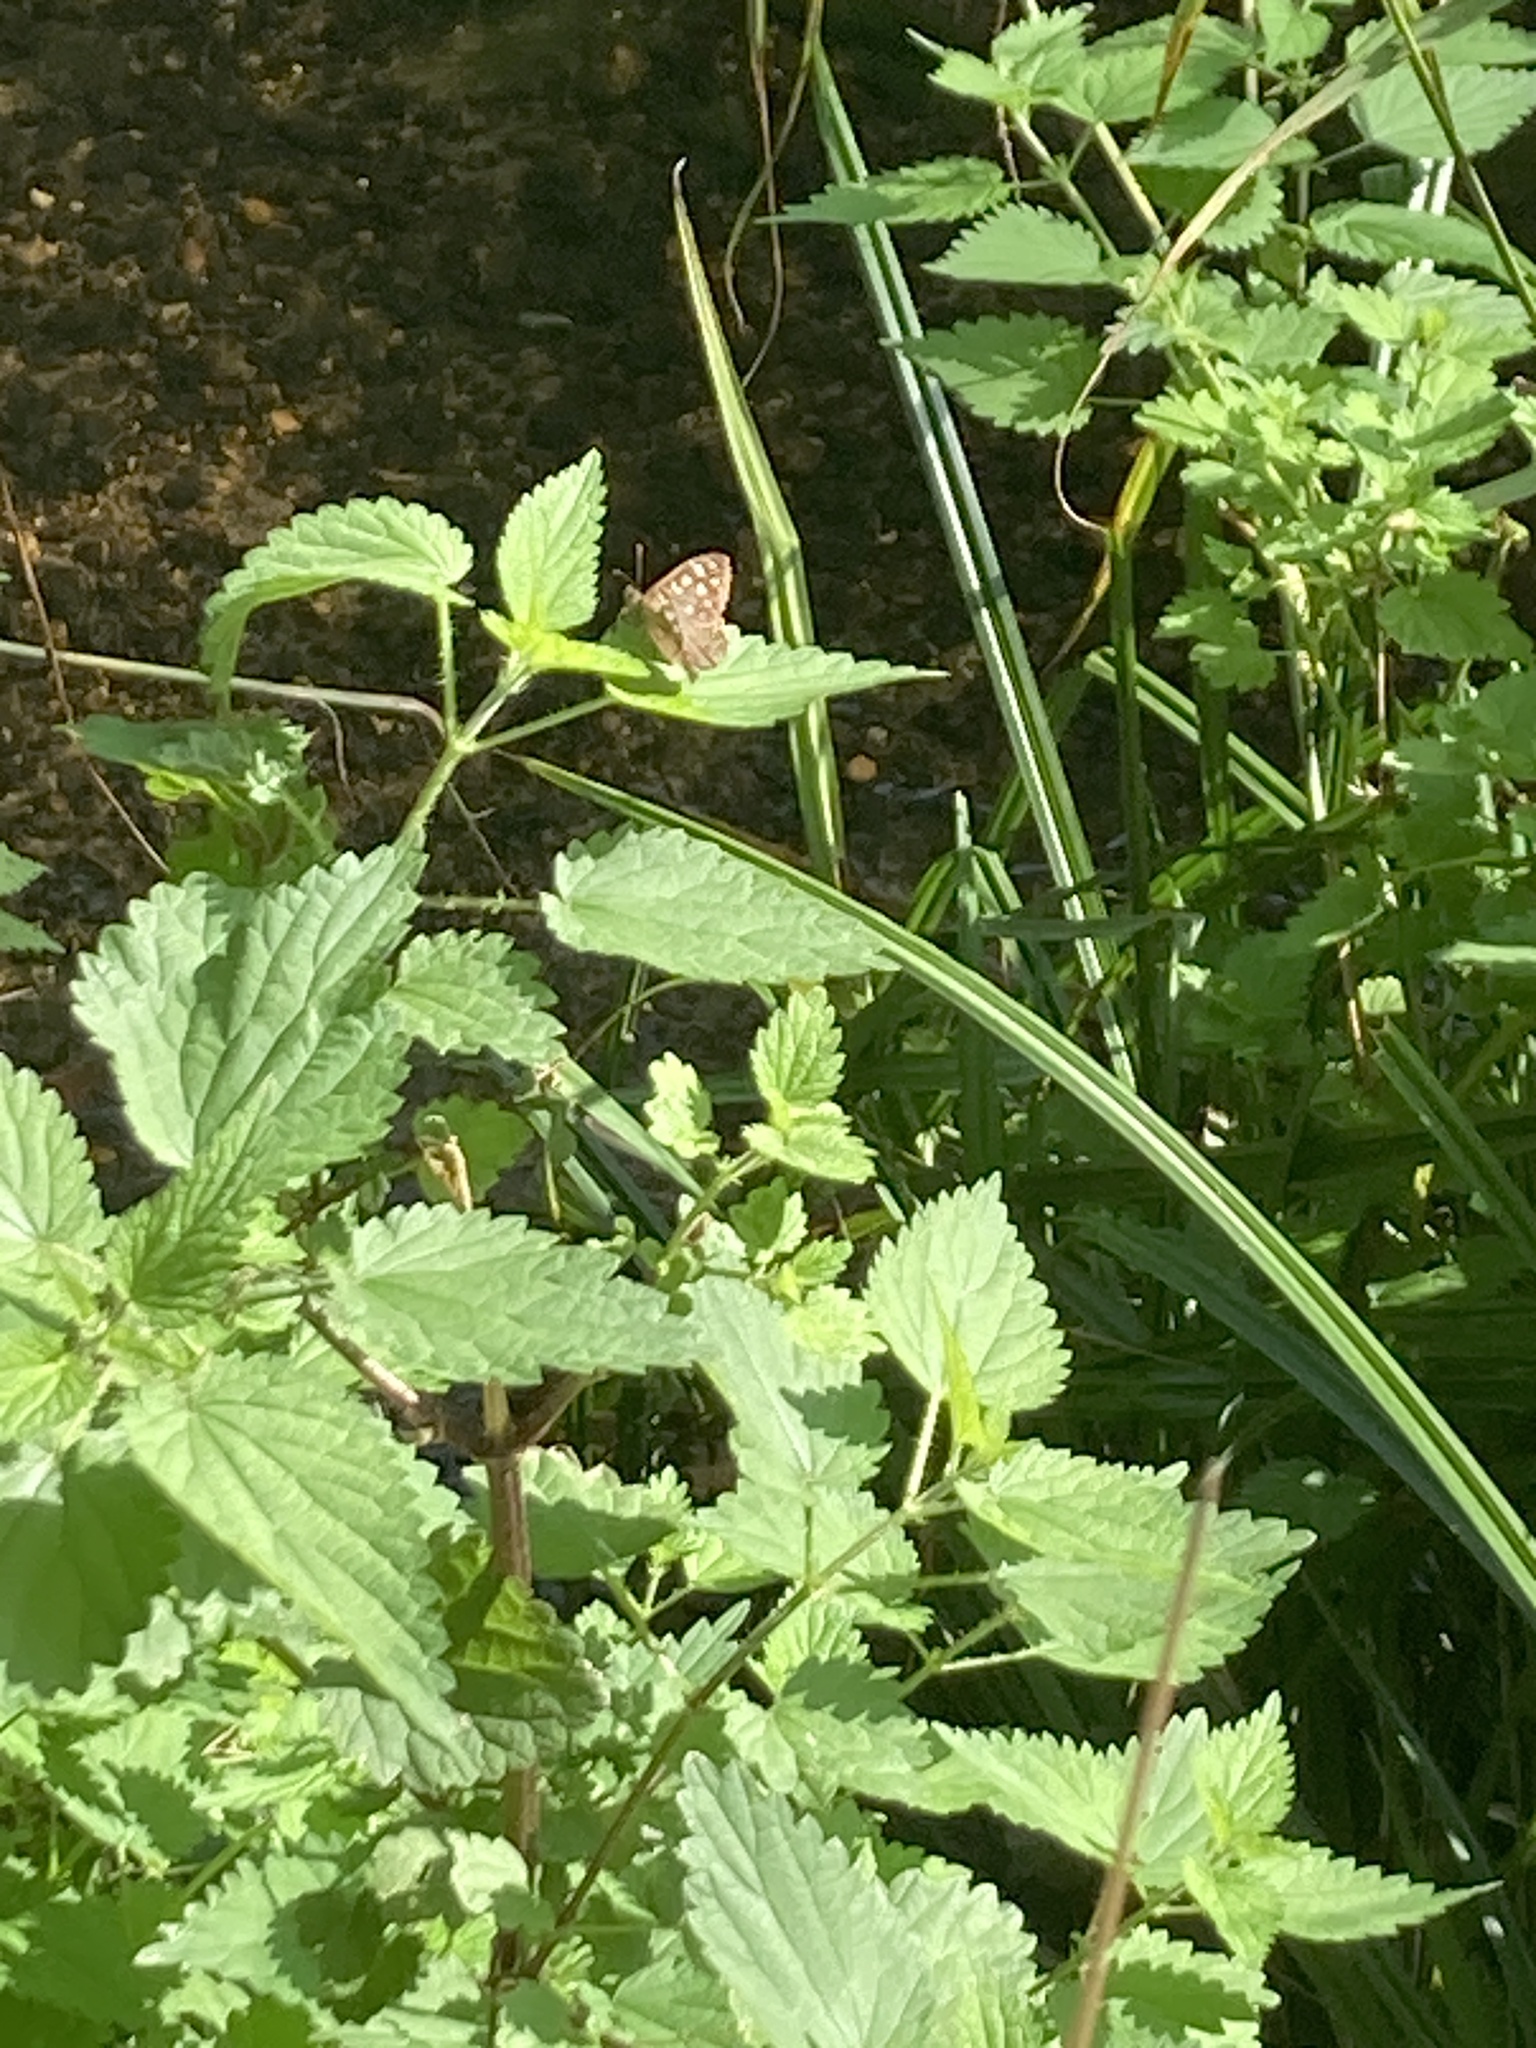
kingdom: Animalia
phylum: Arthropoda
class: Insecta
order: Lepidoptera
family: Nymphalidae
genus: Pararge
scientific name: Pararge aegeria
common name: Speckled wood
